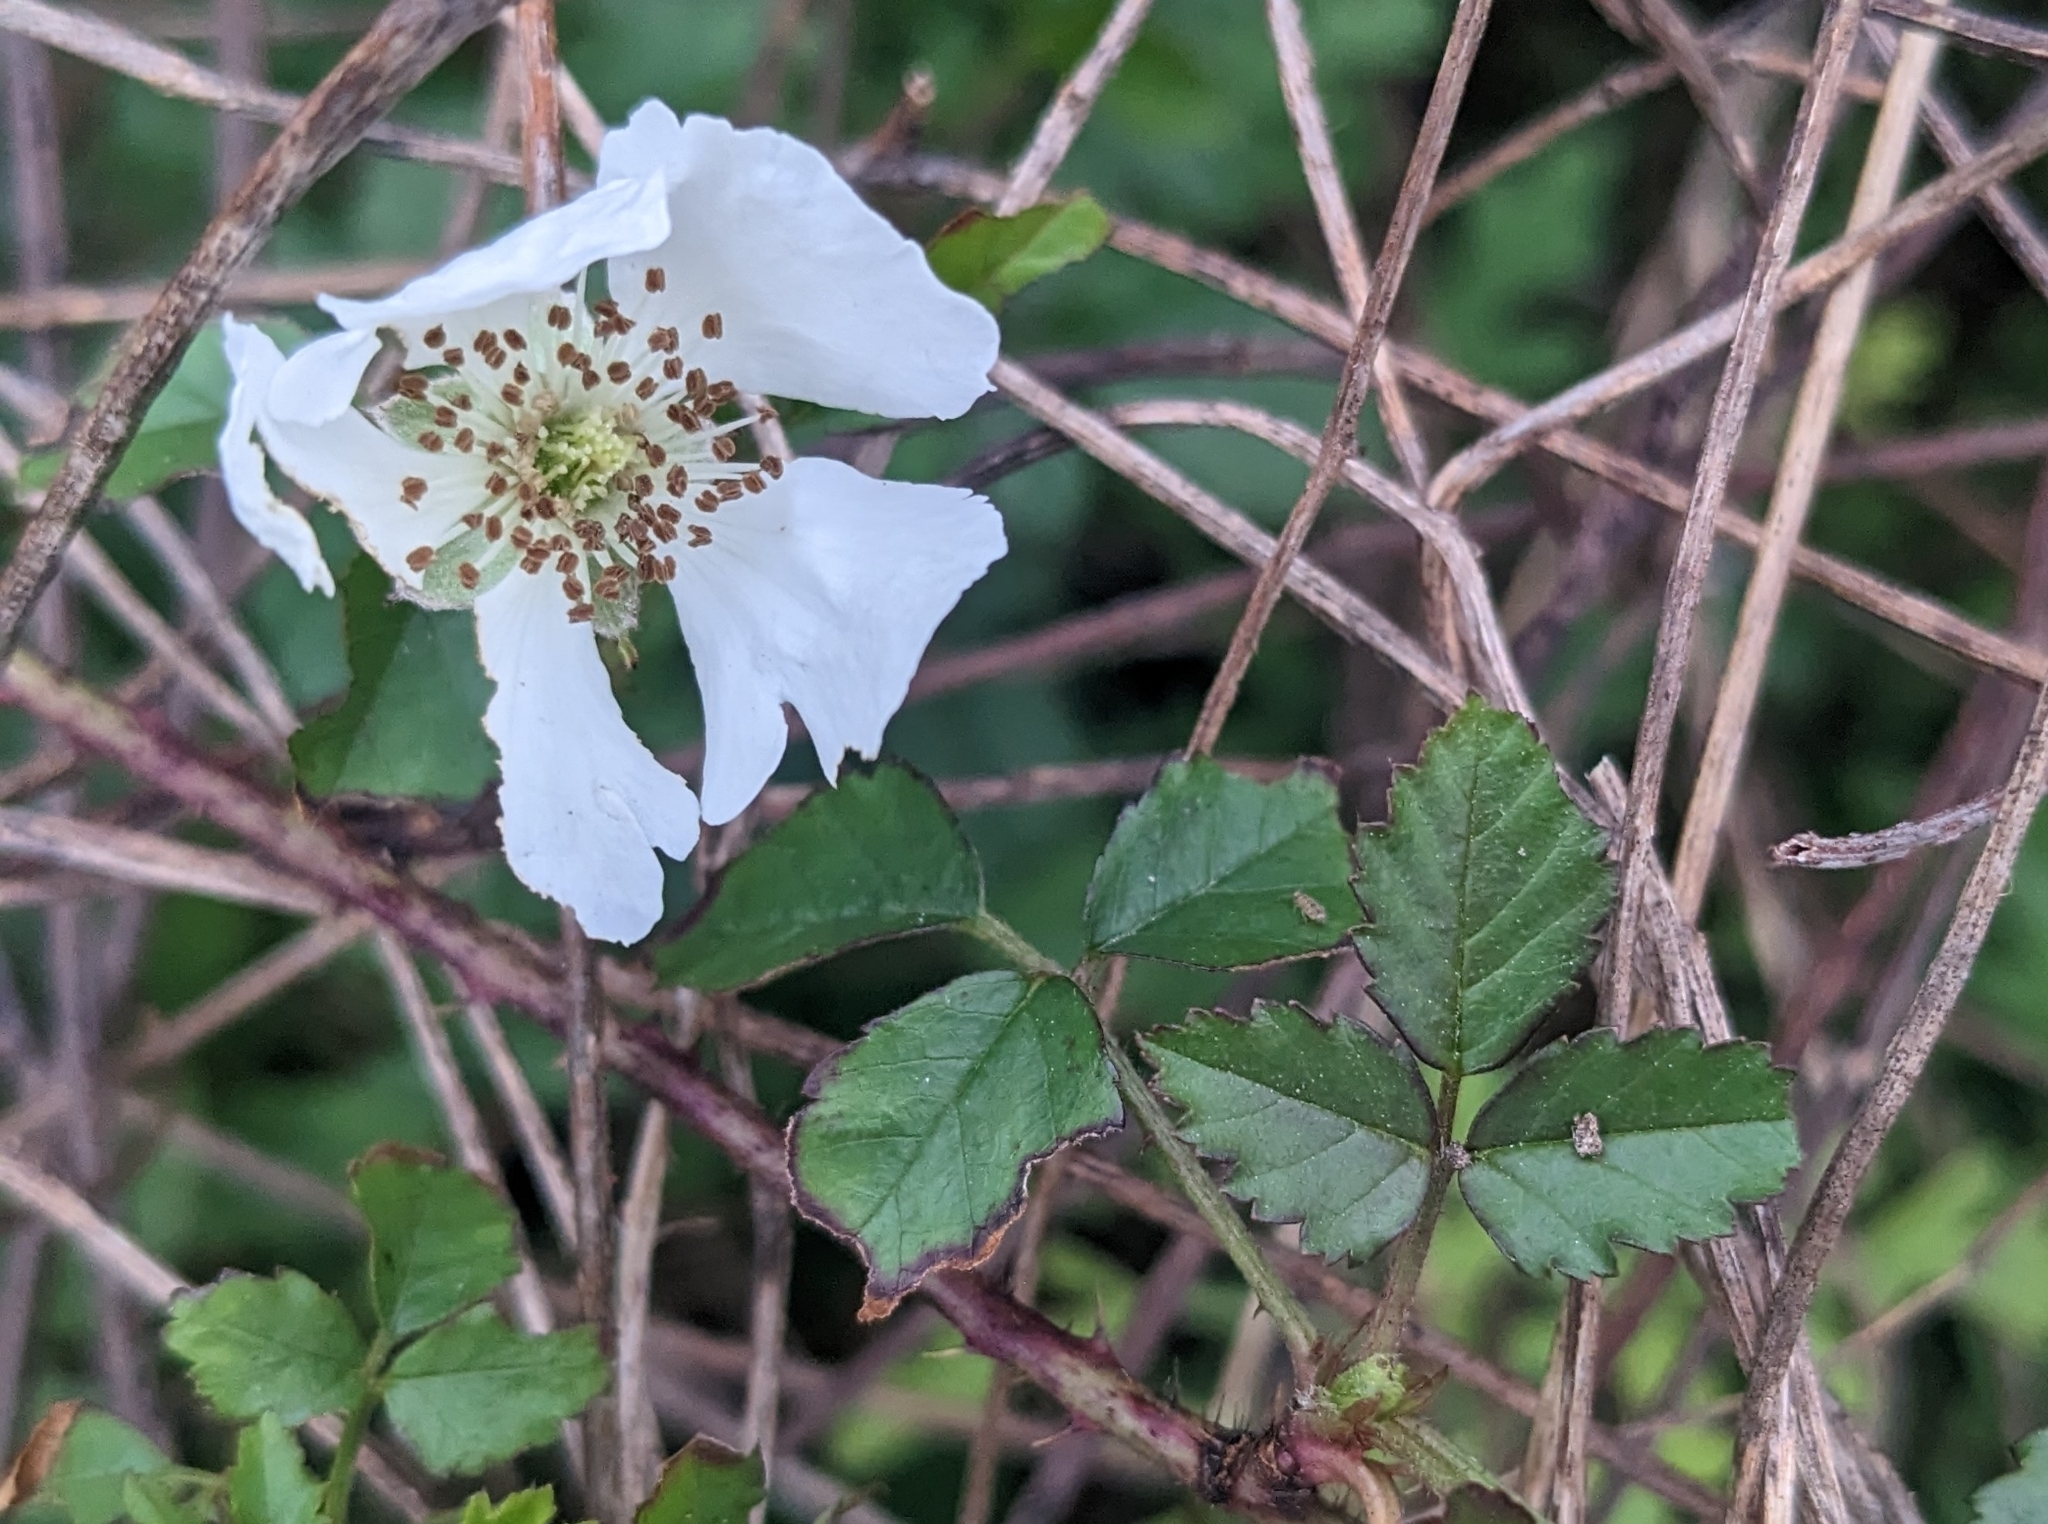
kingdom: Plantae
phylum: Tracheophyta
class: Magnoliopsida
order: Rosales
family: Rosaceae
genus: Rubus
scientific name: Rubus trivialis
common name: Southern dewberry
